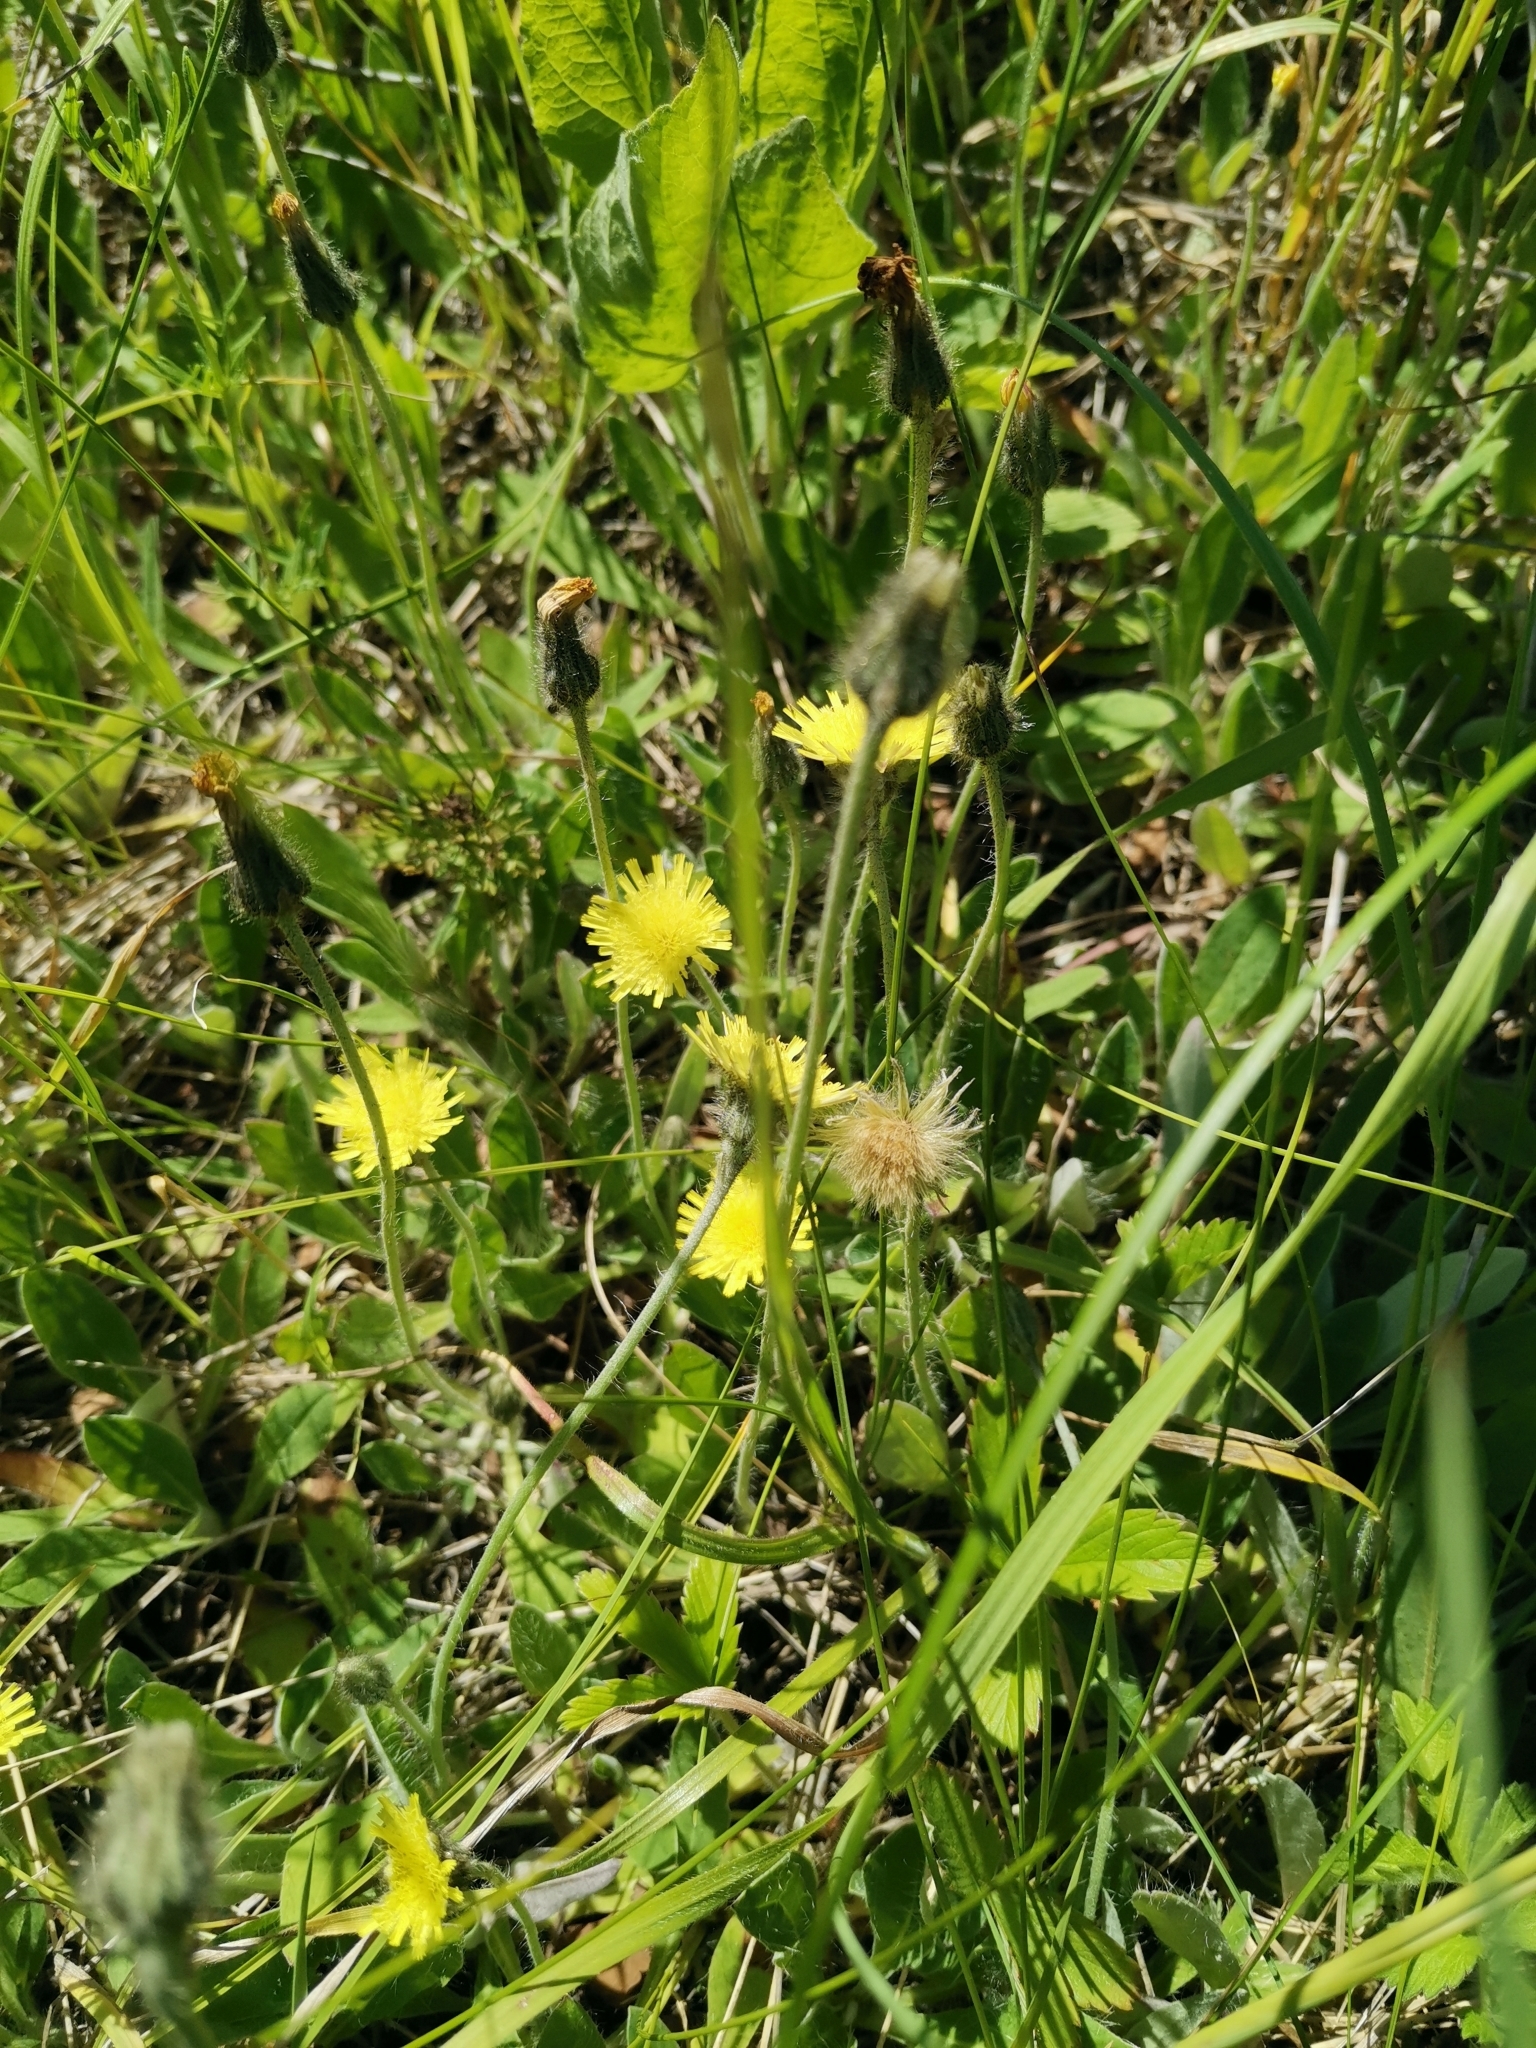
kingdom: Plantae
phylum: Tracheophyta
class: Magnoliopsida
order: Asterales
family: Asteraceae
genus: Pilosella
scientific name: Pilosella officinarum
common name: Mouse-ear hawkweed
